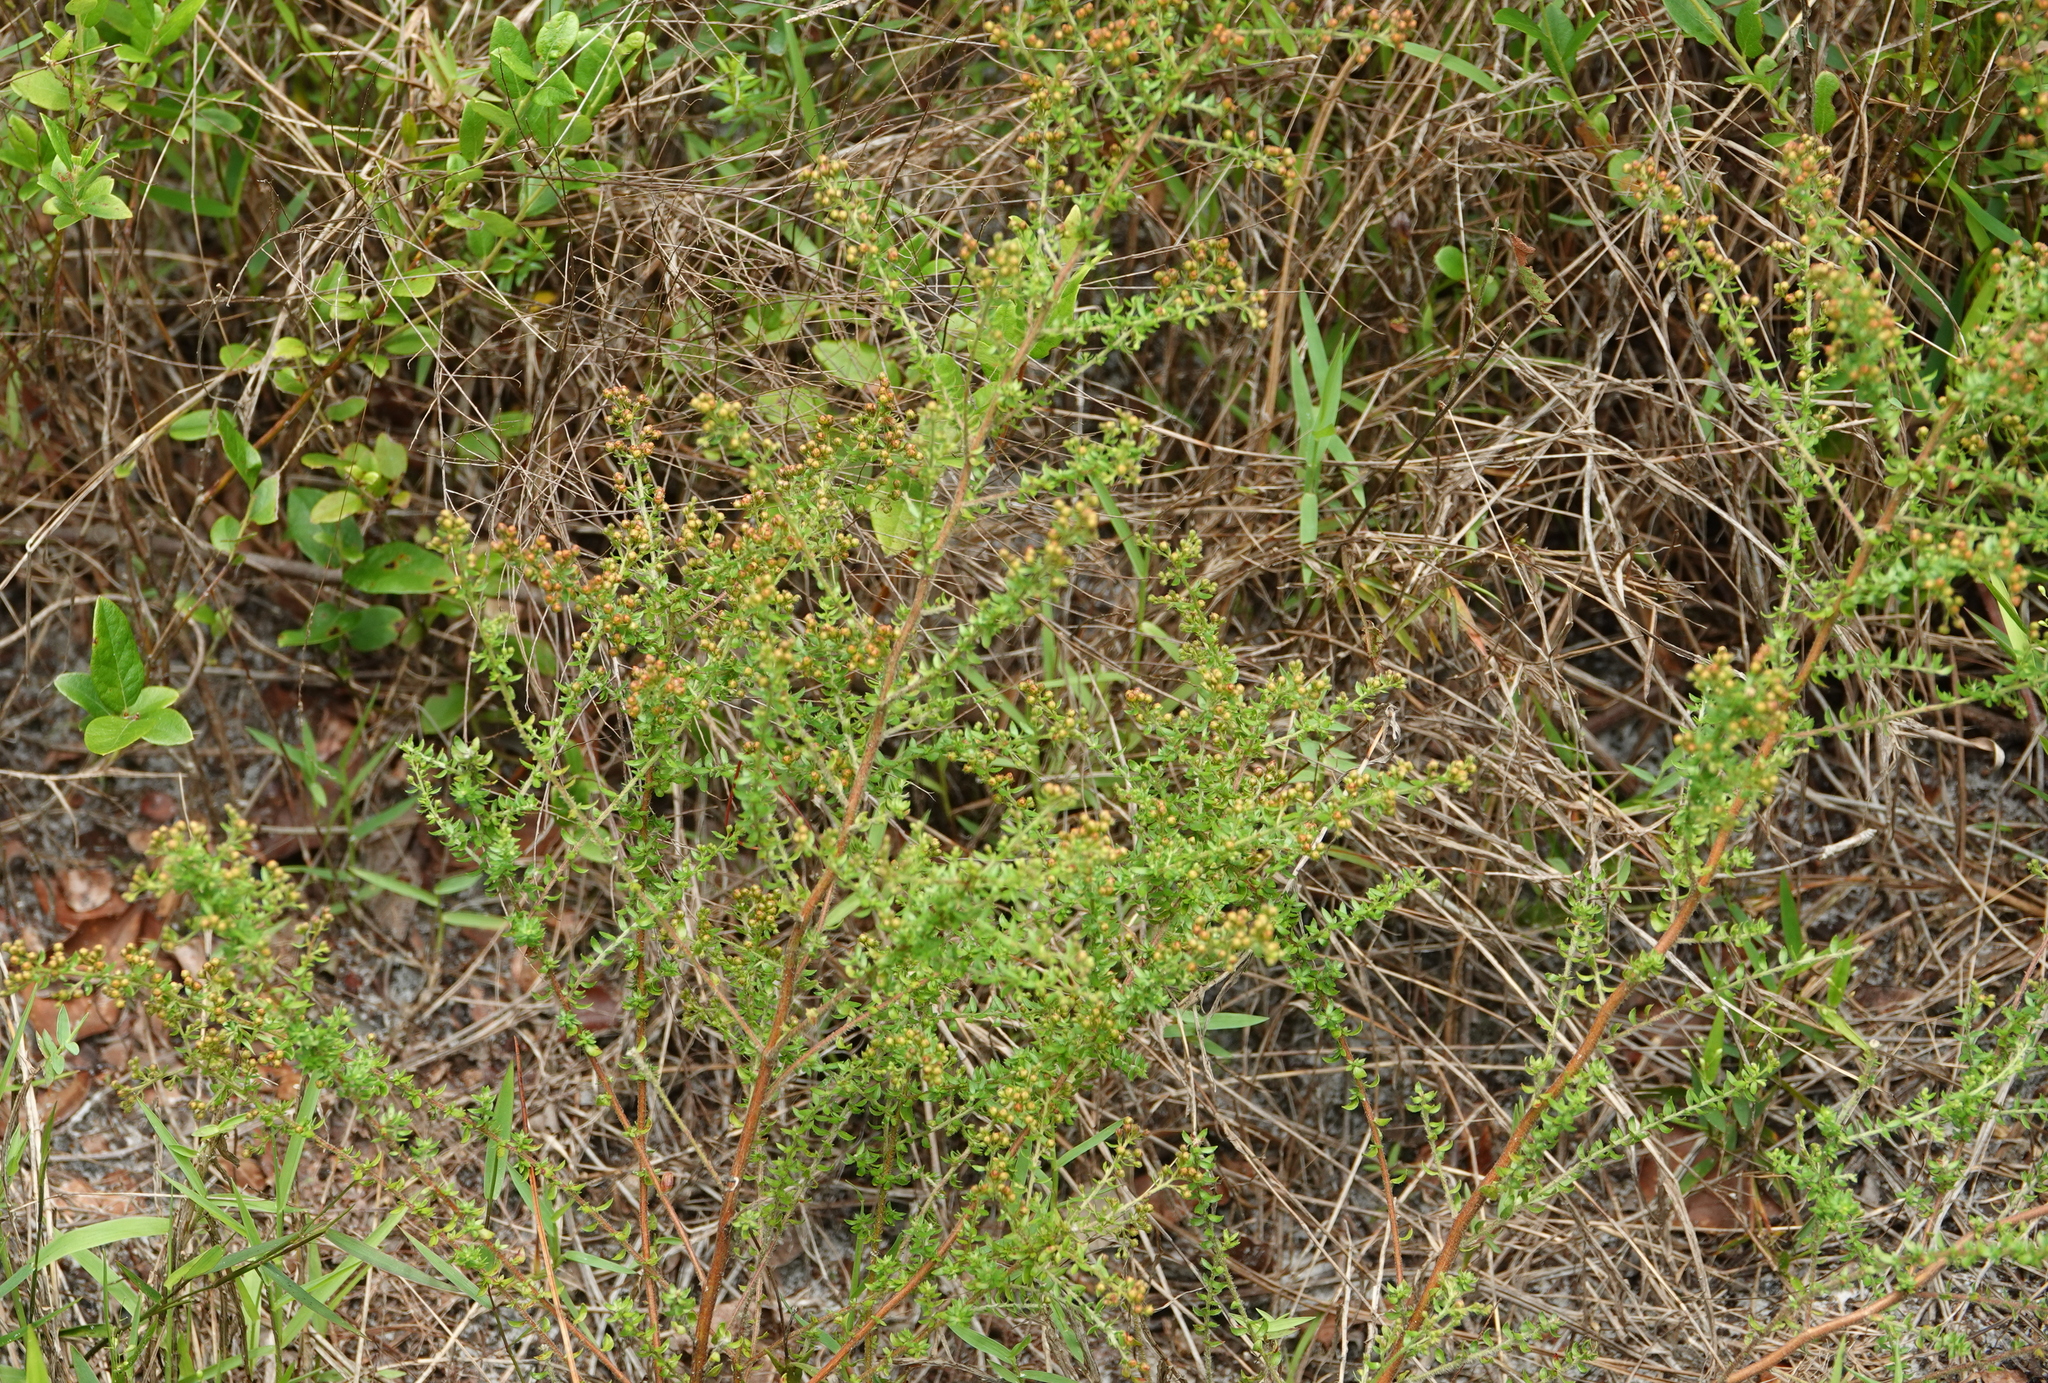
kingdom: Plantae
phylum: Tracheophyta
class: Magnoliopsida
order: Malvales
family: Cistaceae
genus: Lechea
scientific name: Lechea divaricata
